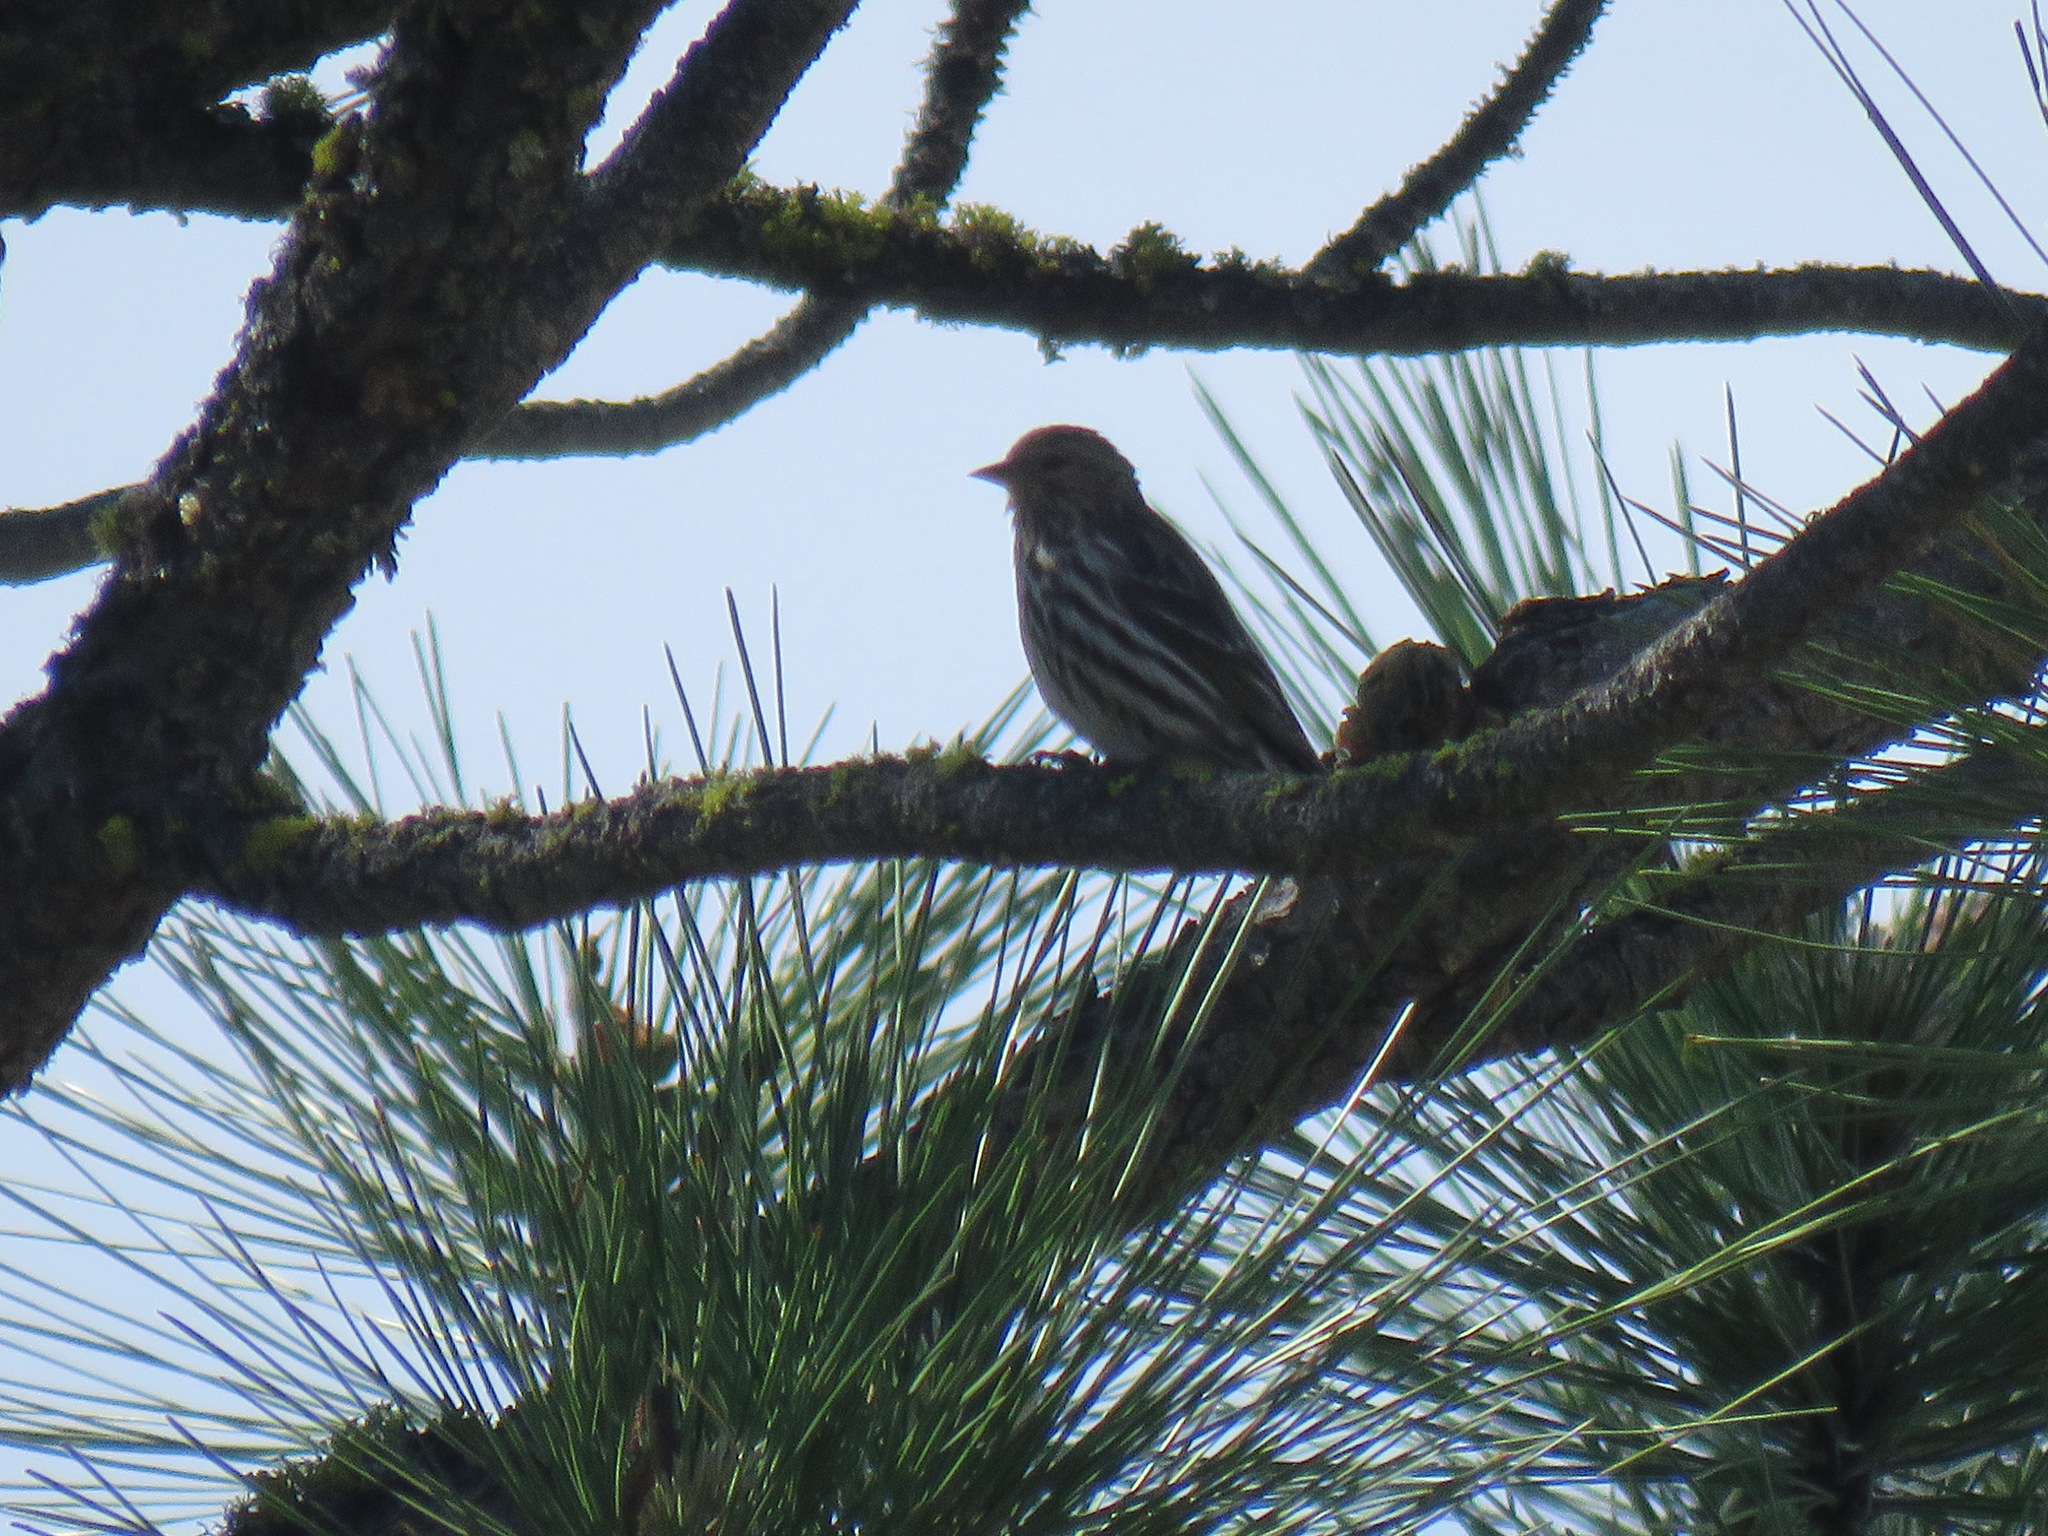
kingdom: Animalia
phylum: Chordata
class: Aves
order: Passeriformes
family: Fringillidae
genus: Spinus
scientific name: Spinus pinus
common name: Pine siskin
